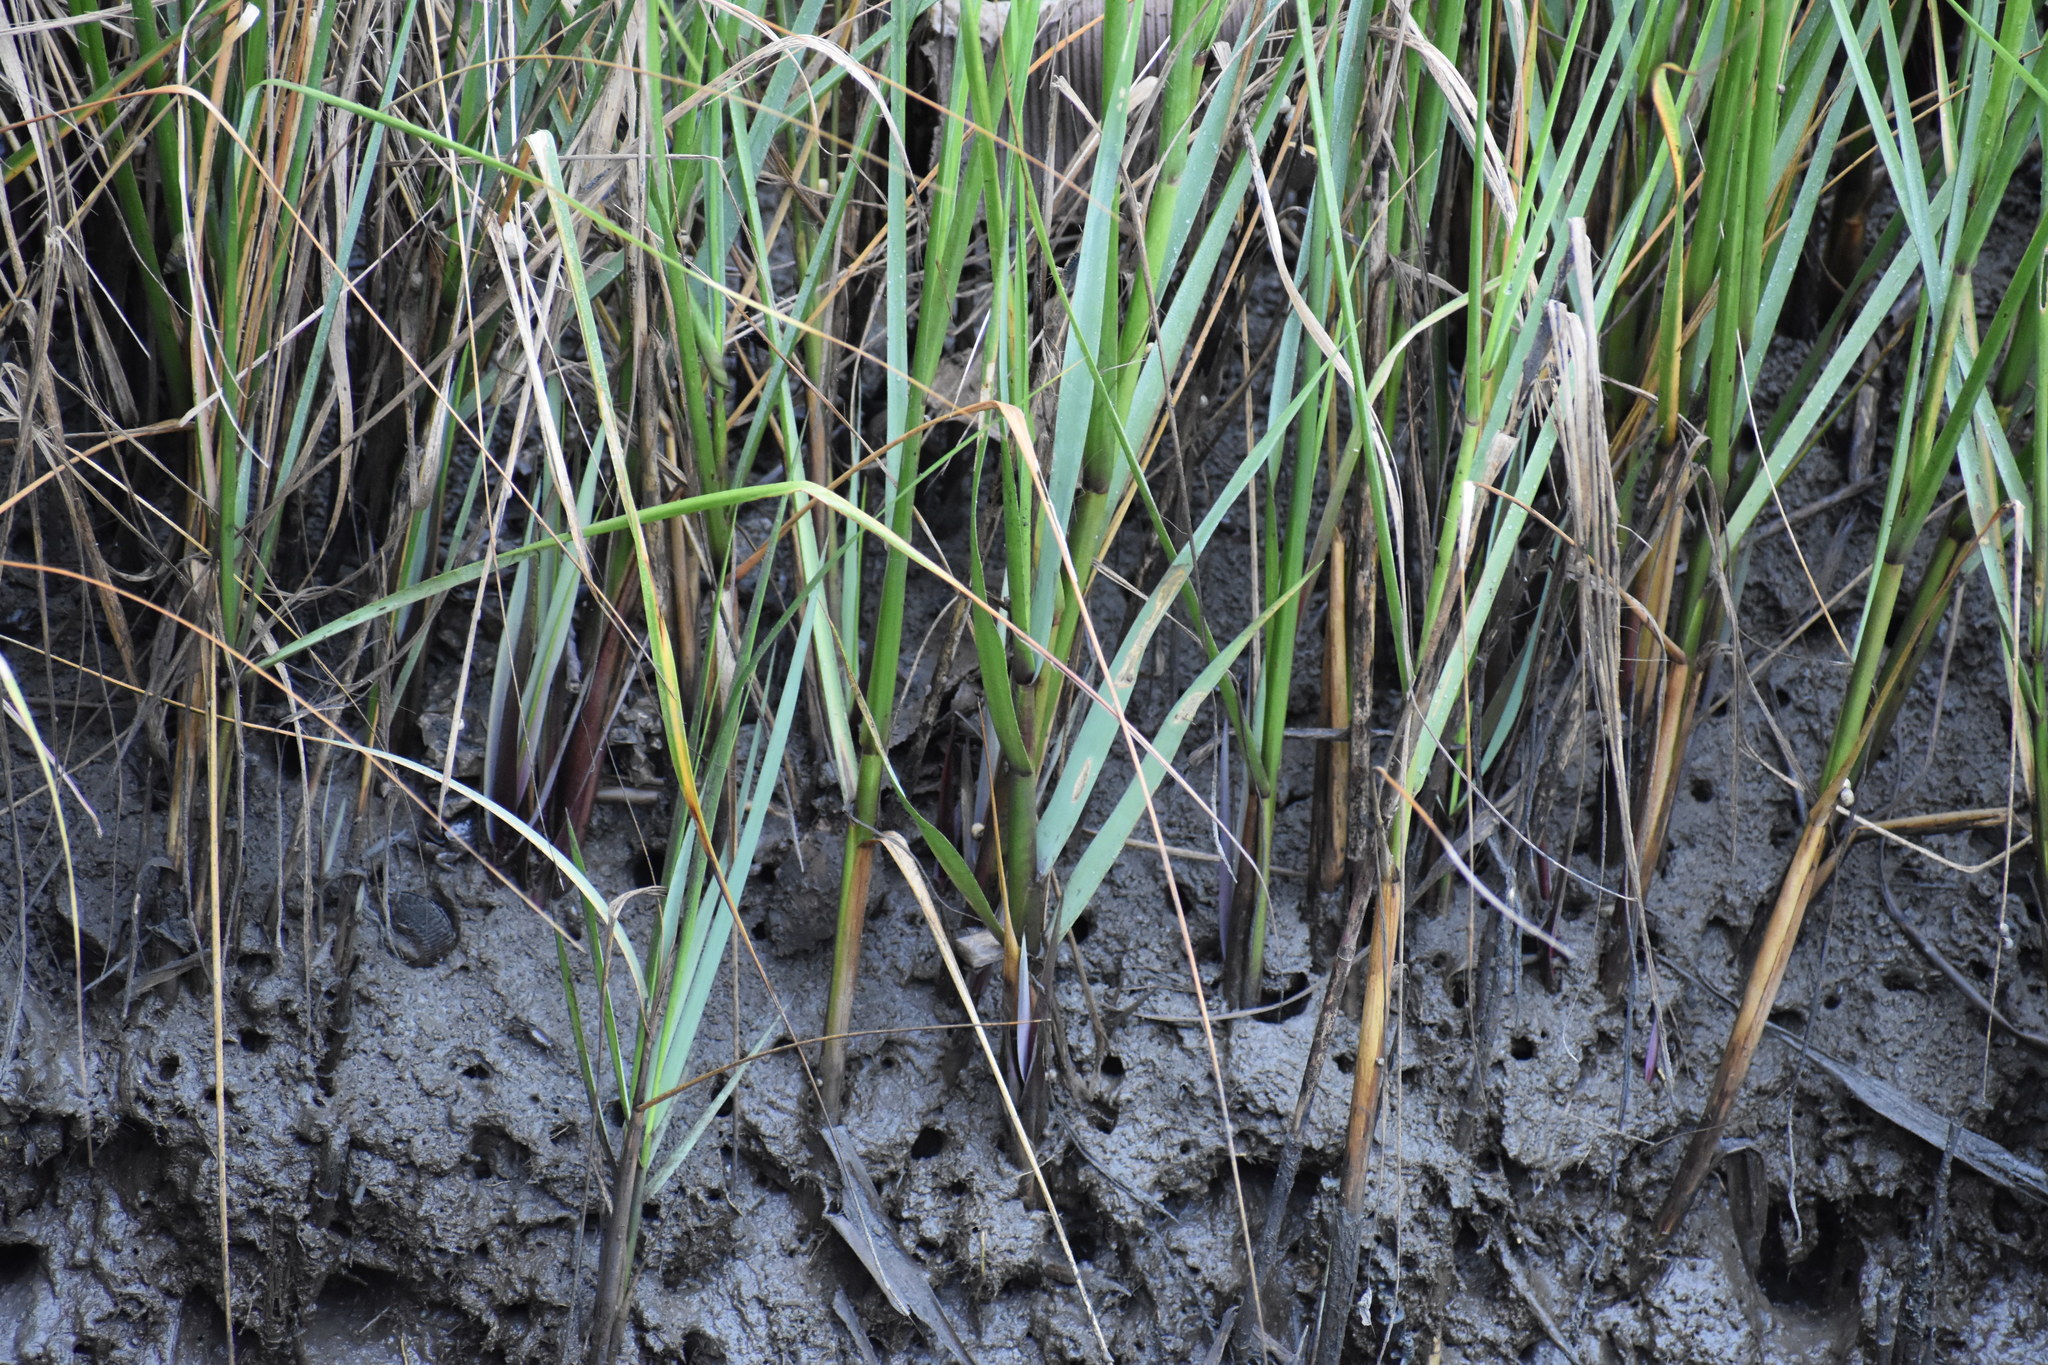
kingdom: Plantae
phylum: Tracheophyta
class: Liliopsida
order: Poales
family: Poaceae
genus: Sporobolus
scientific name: Sporobolus alterniflorus
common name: Atlantic cordgrass
